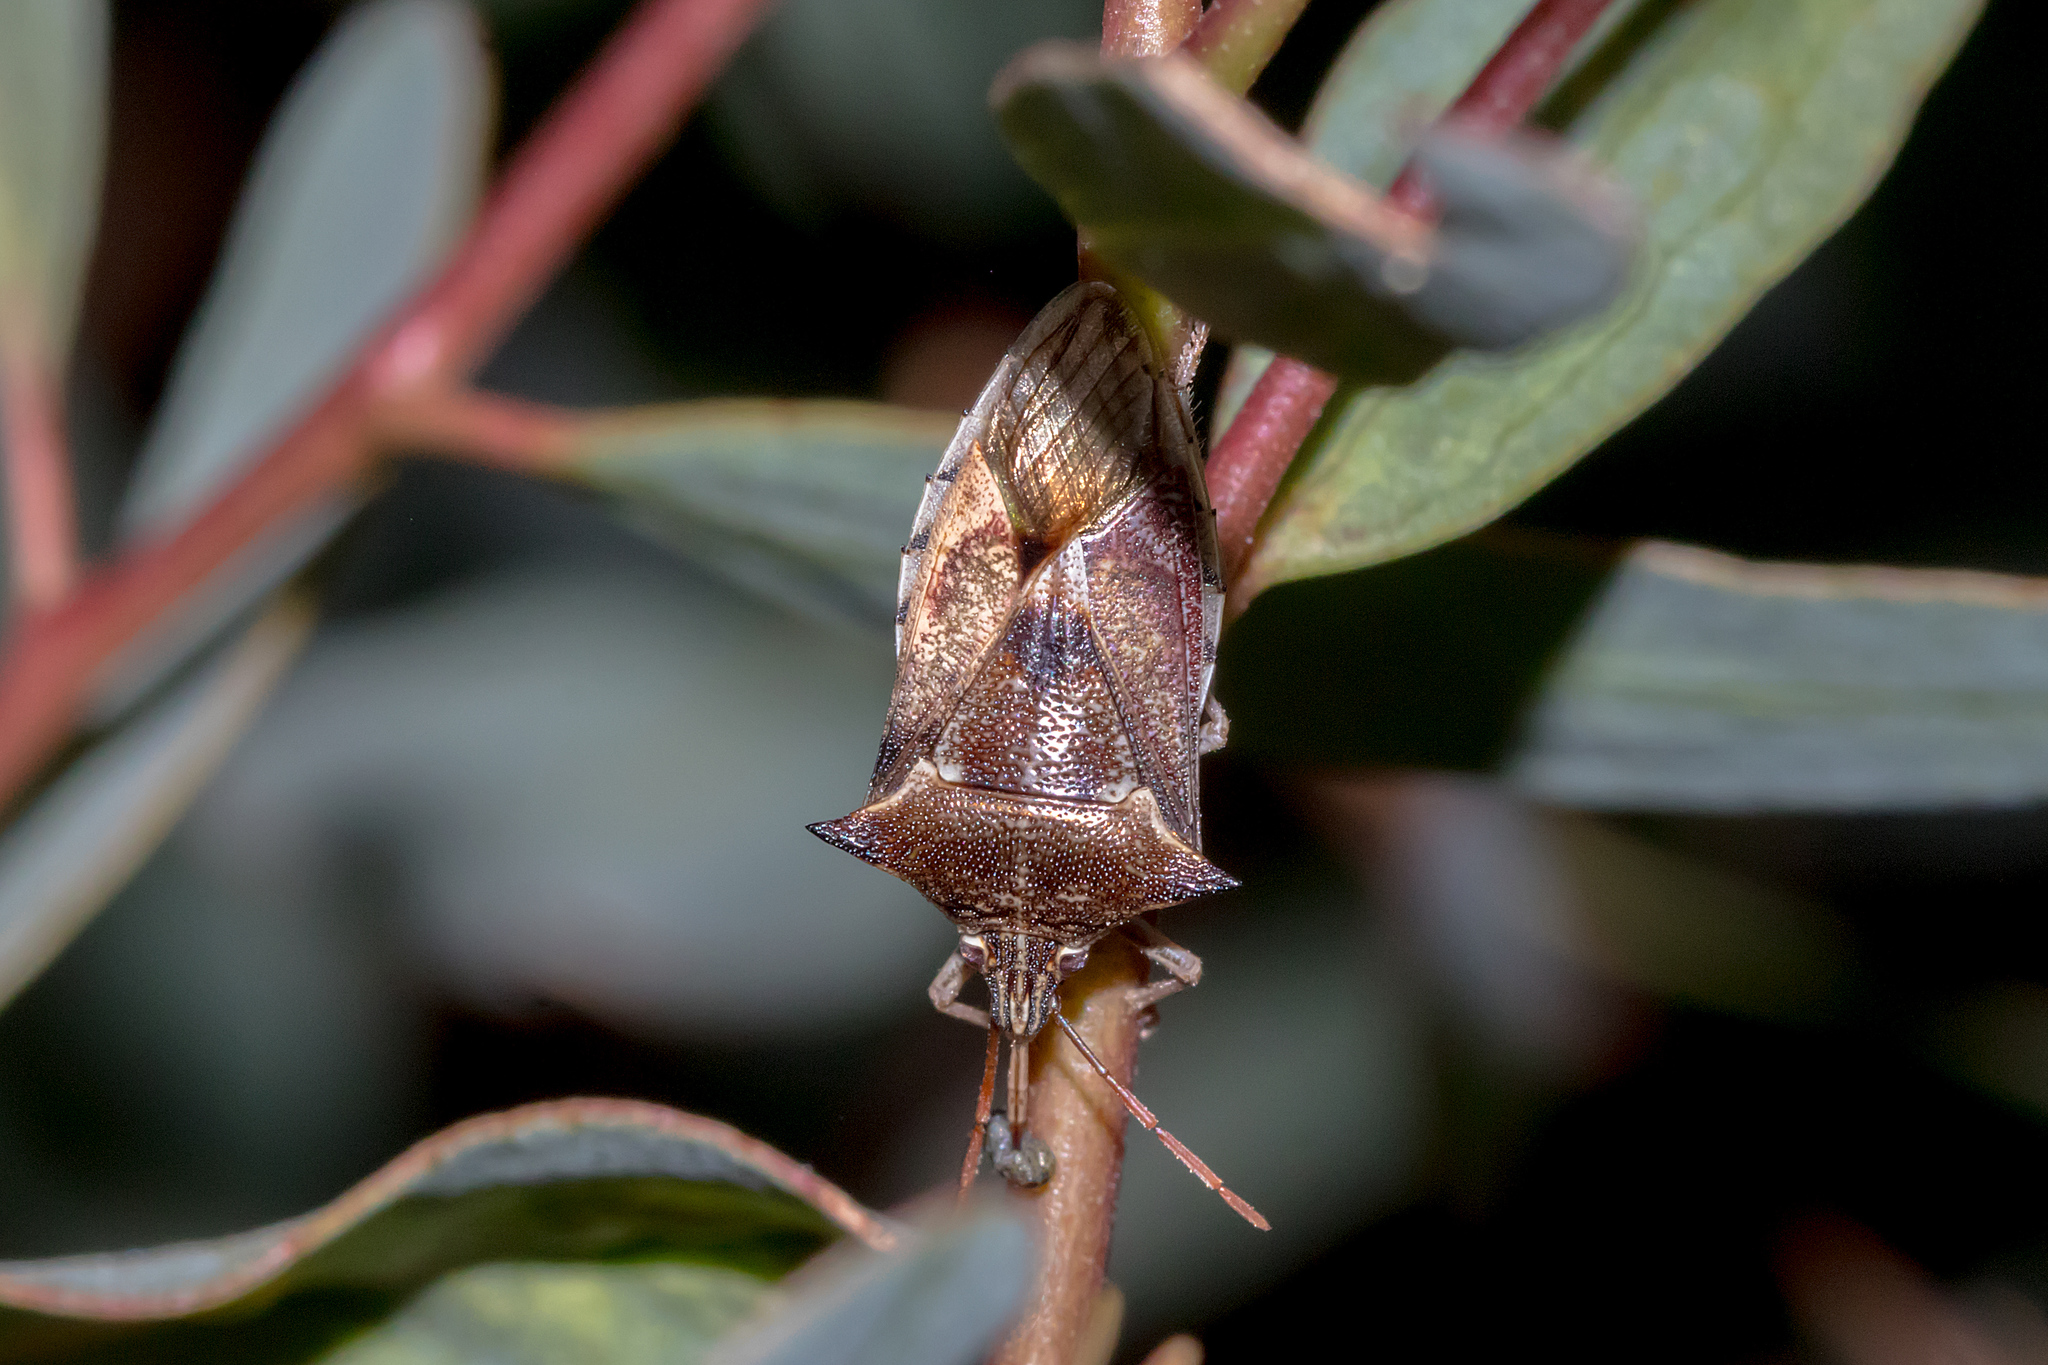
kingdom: Animalia
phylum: Arthropoda
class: Insecta
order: Hemiptera
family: Pentatomidae
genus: Oechalia
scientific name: Oechalia schellenbergii
